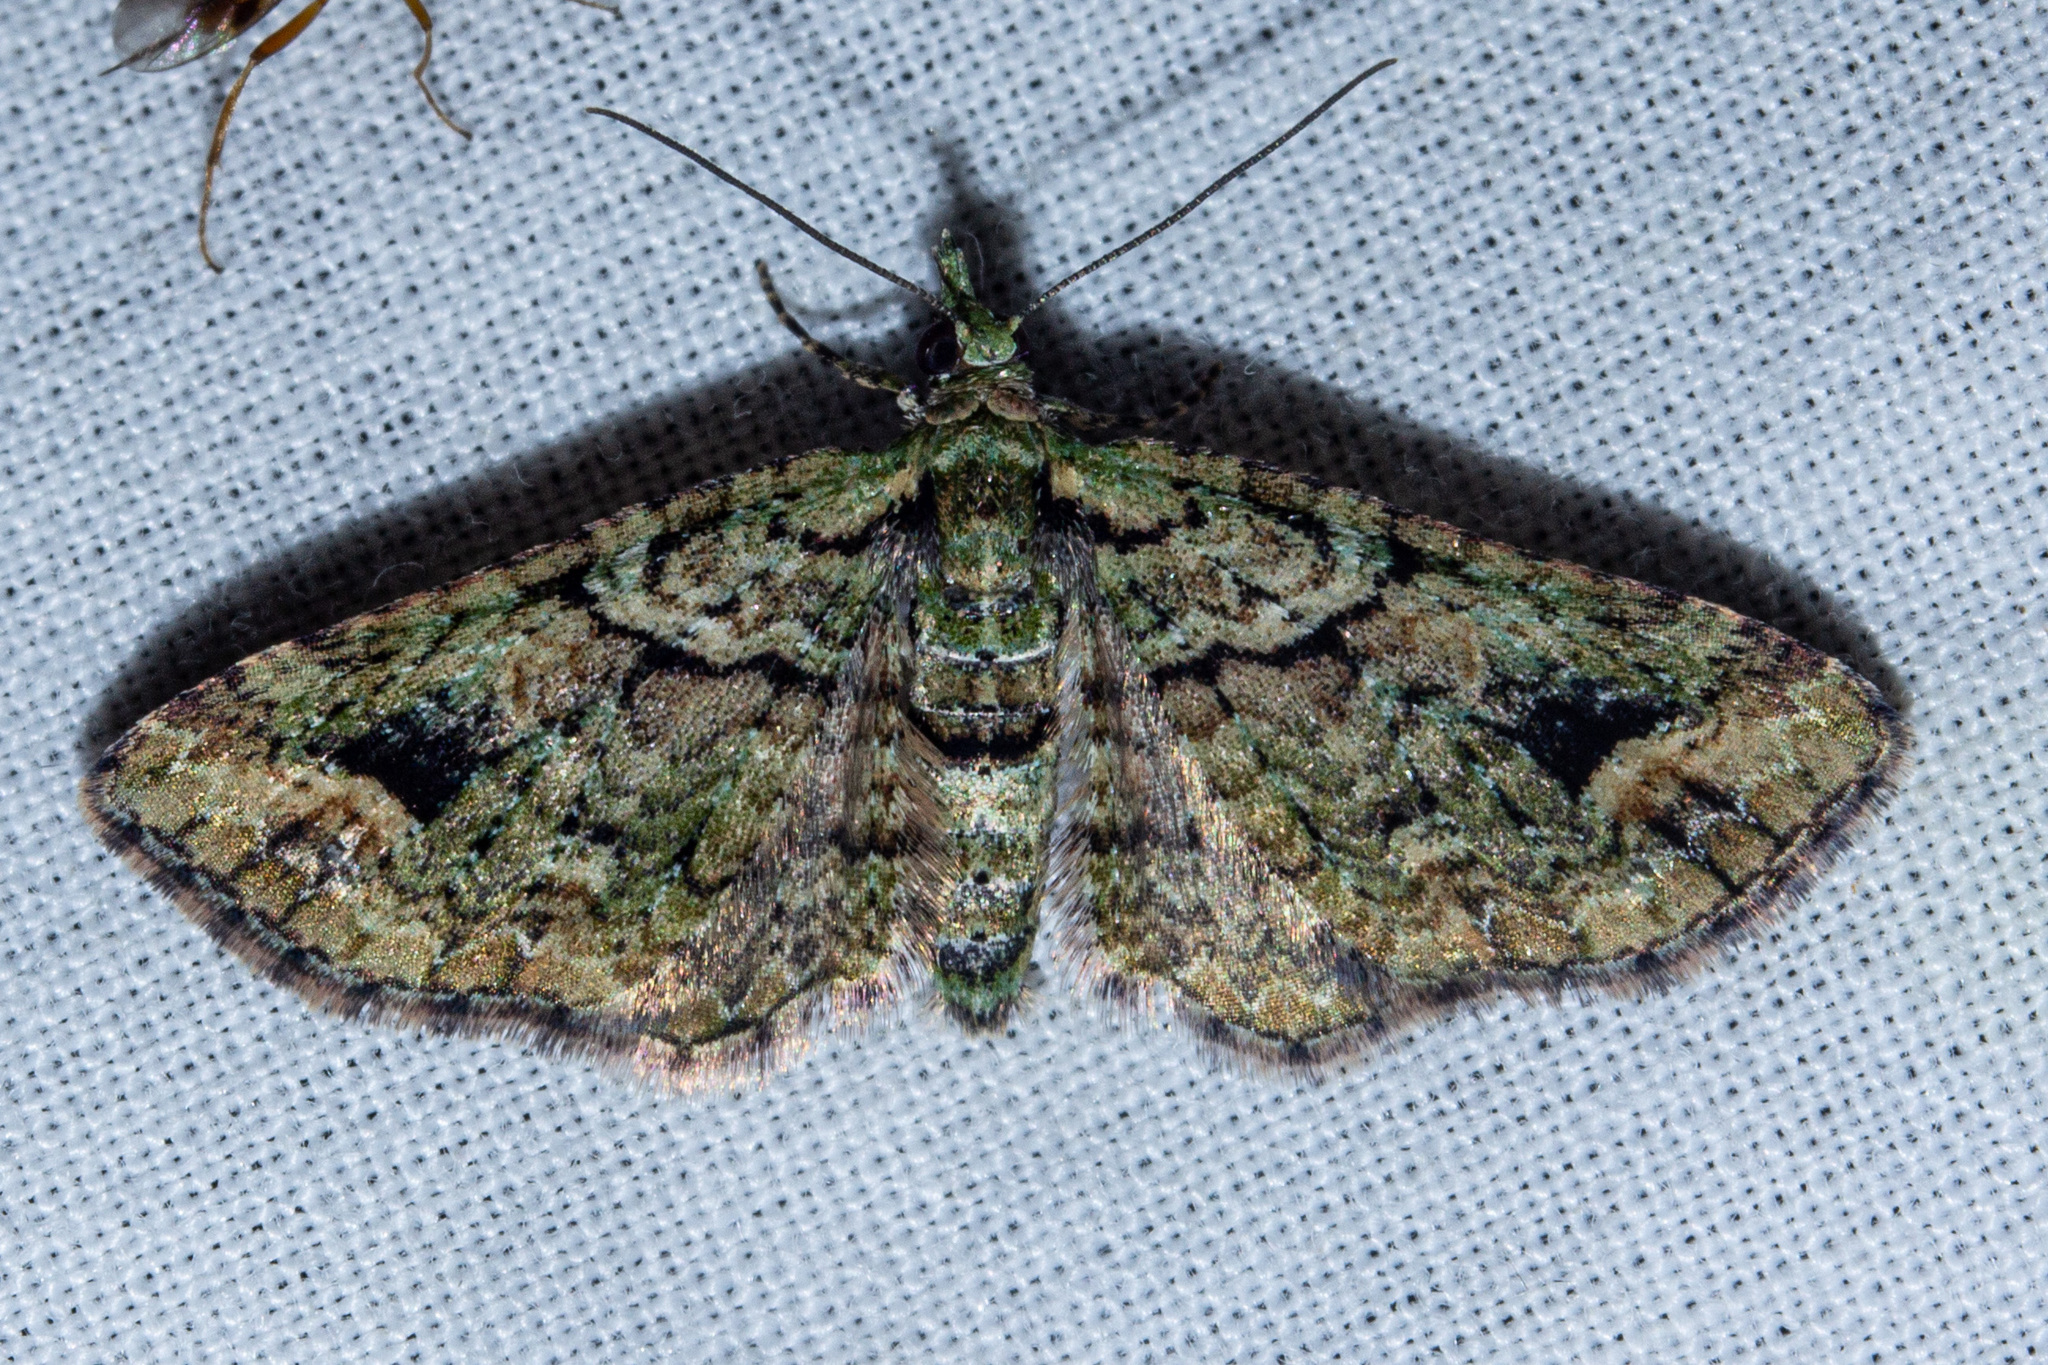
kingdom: Animalia
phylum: Arthropoda
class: Insecta
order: Lepidoptera
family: Geometridae
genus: Idaea
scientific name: Idaea mutanda
